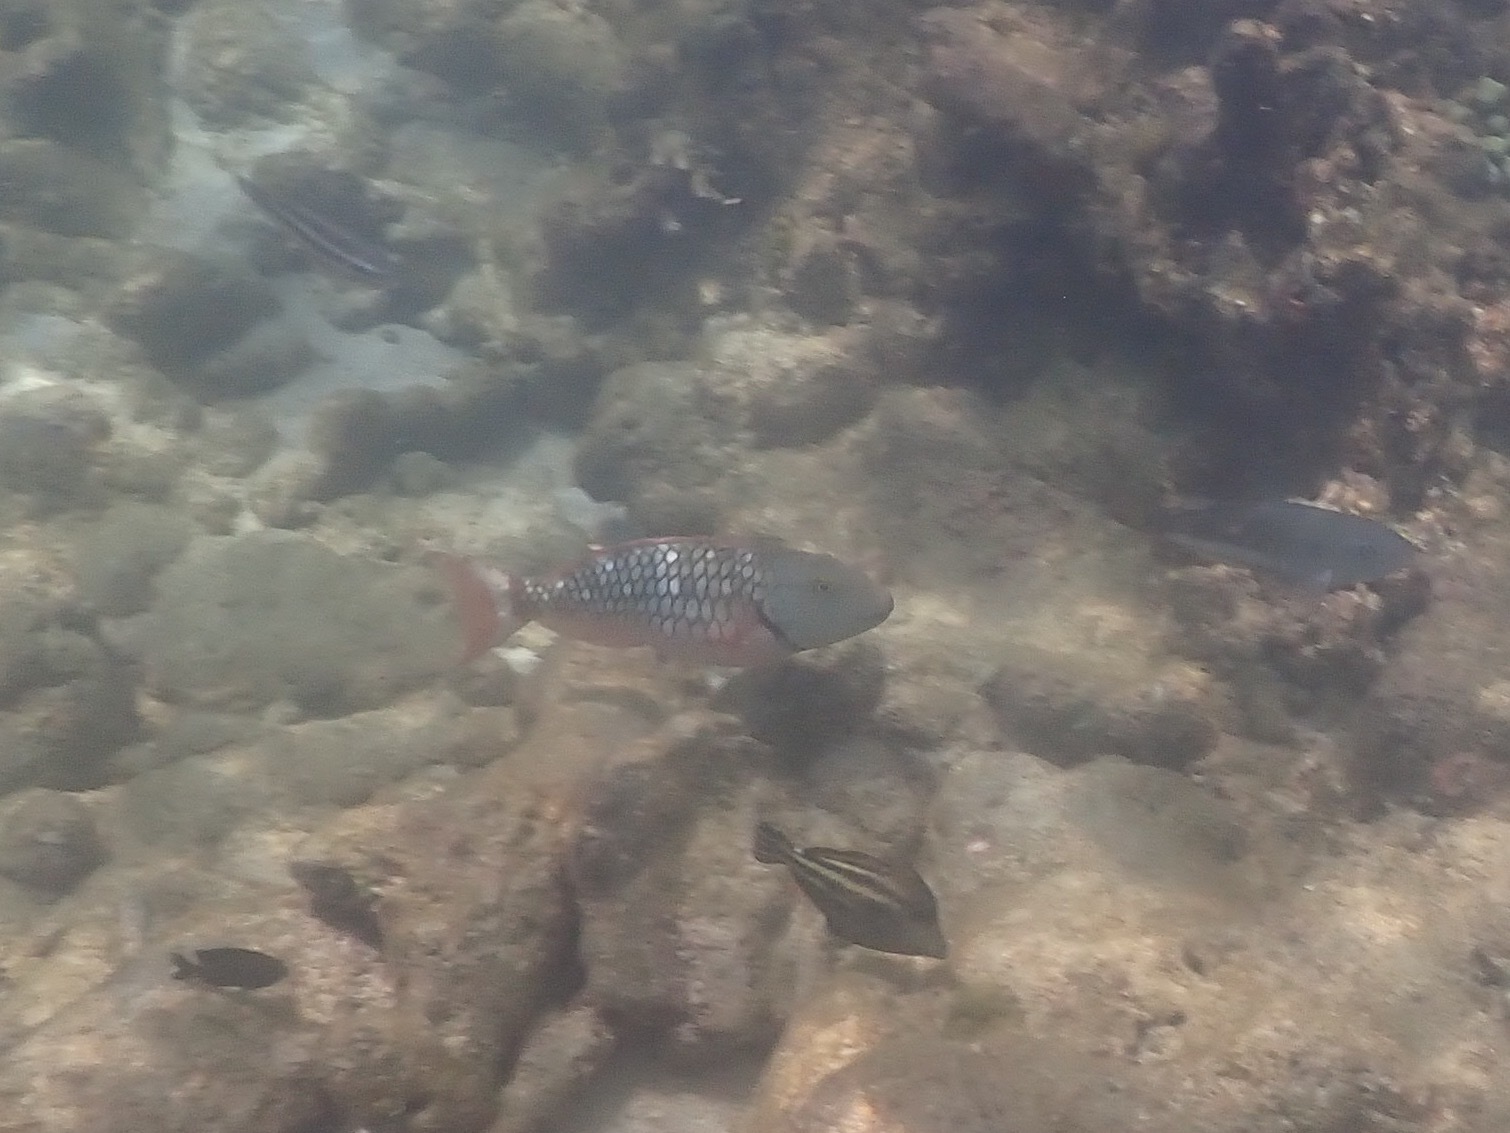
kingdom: Animalia
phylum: Chordata
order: Perciformes
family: Scaridae
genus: Sparisoma
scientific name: Sparisoma viride
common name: Stoplight parrotfish
